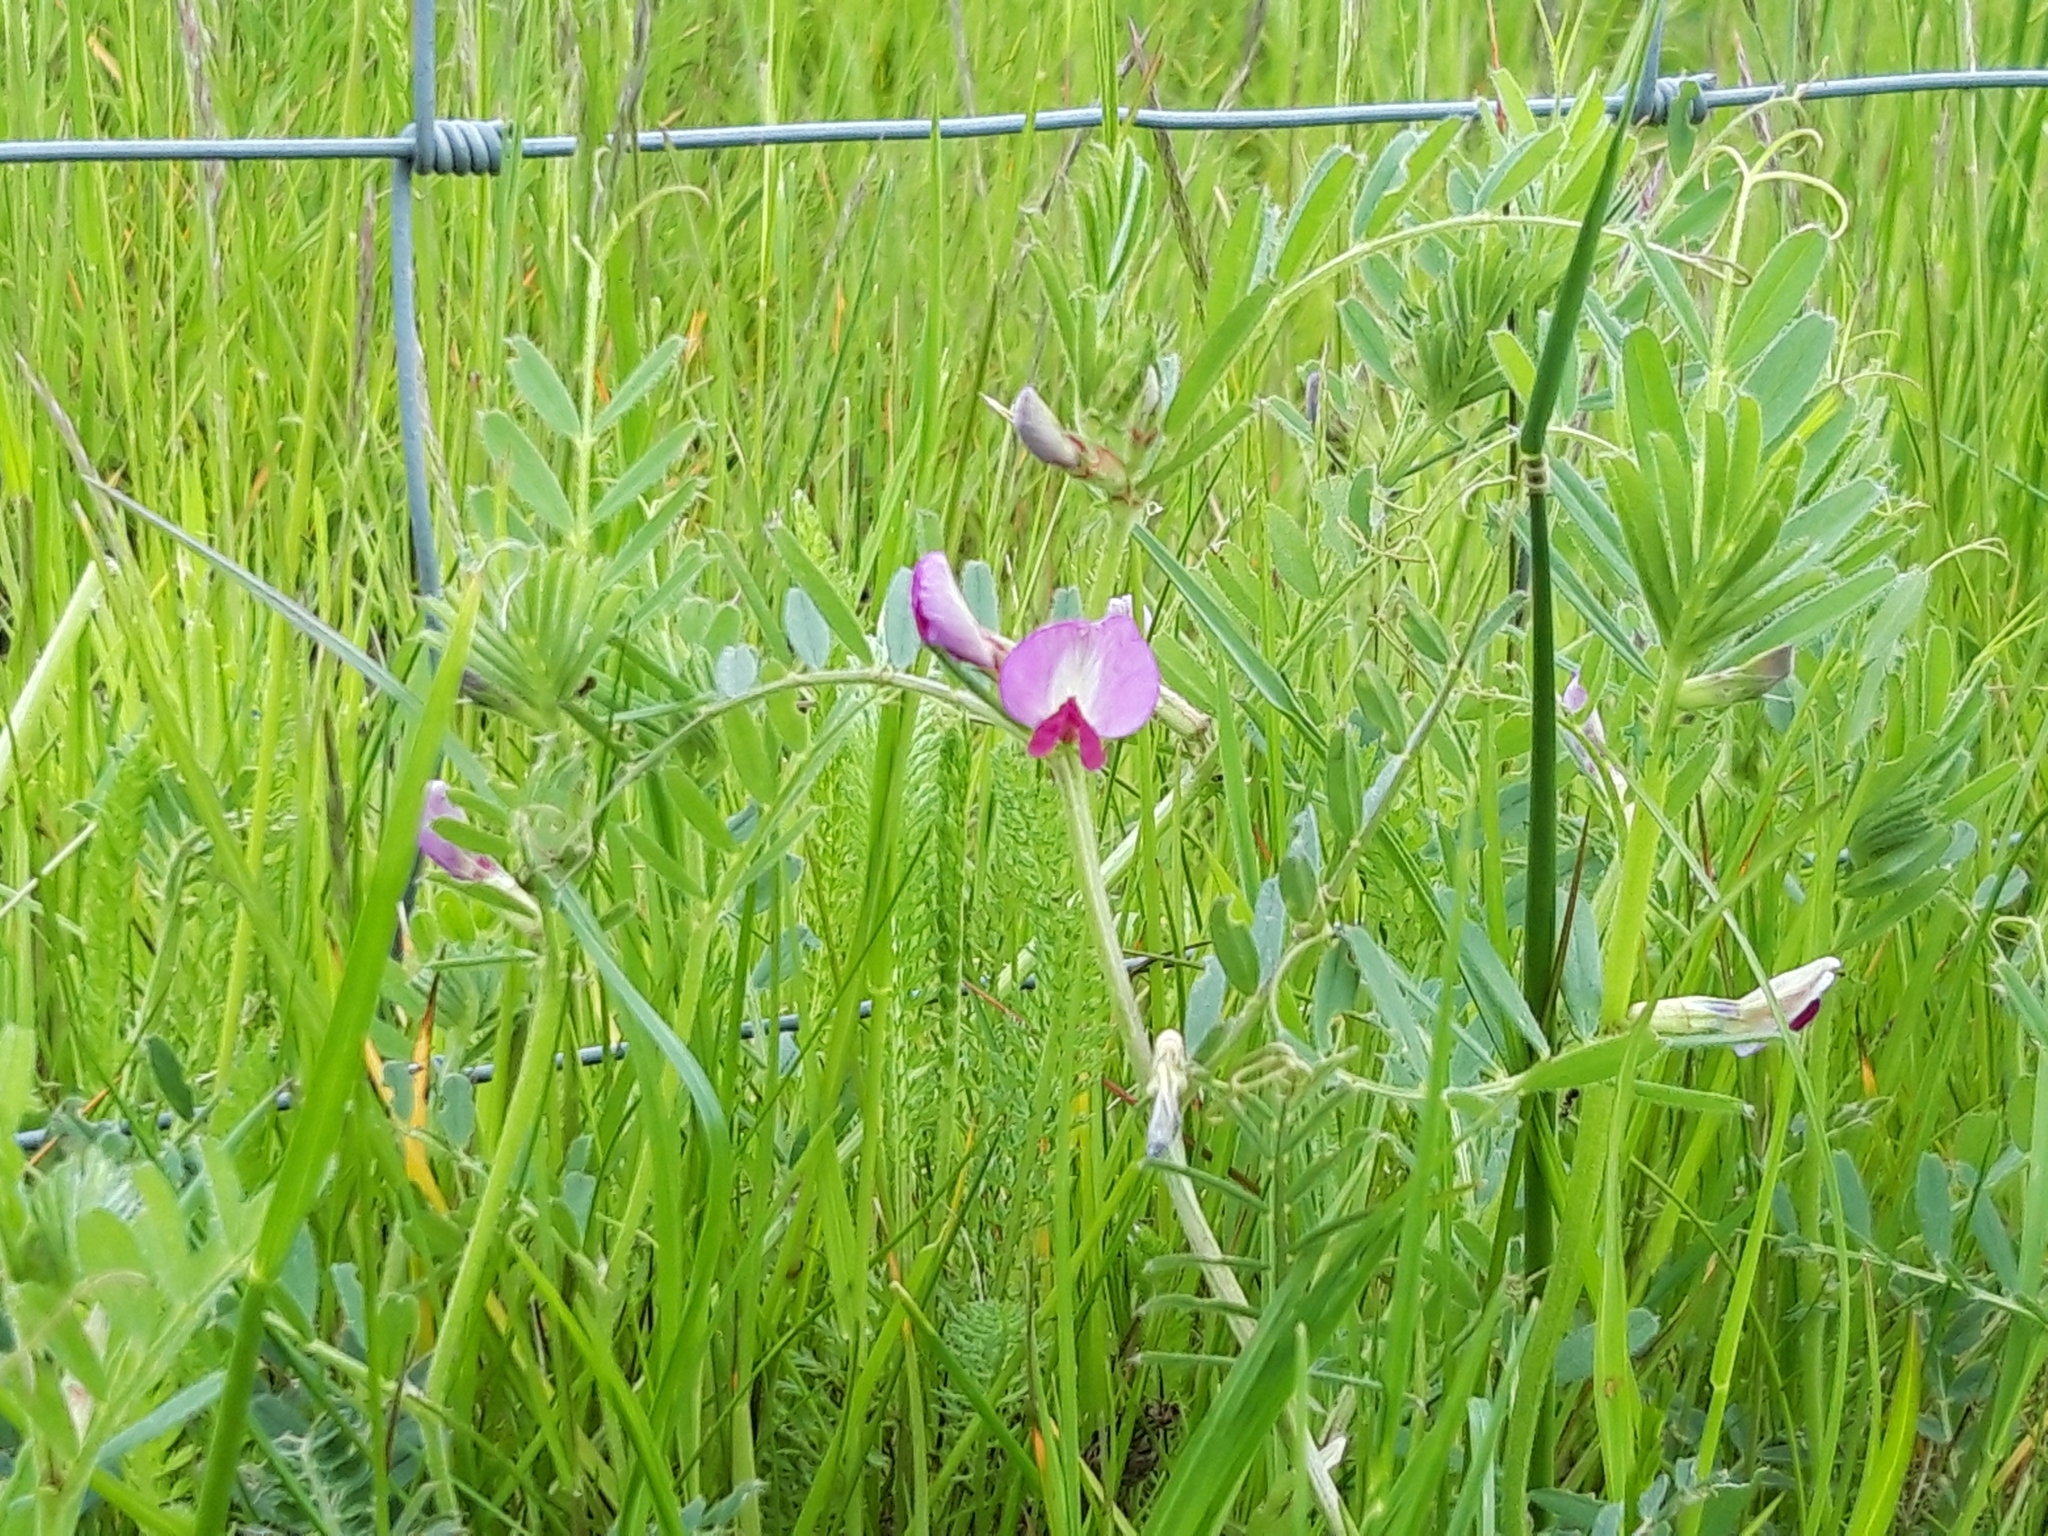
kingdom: Plantae
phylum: Tracheophyta
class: Magnoliopsida
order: Fabales
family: Fabaceae
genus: Vicia
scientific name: Vicia sativa
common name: Garden vetch
